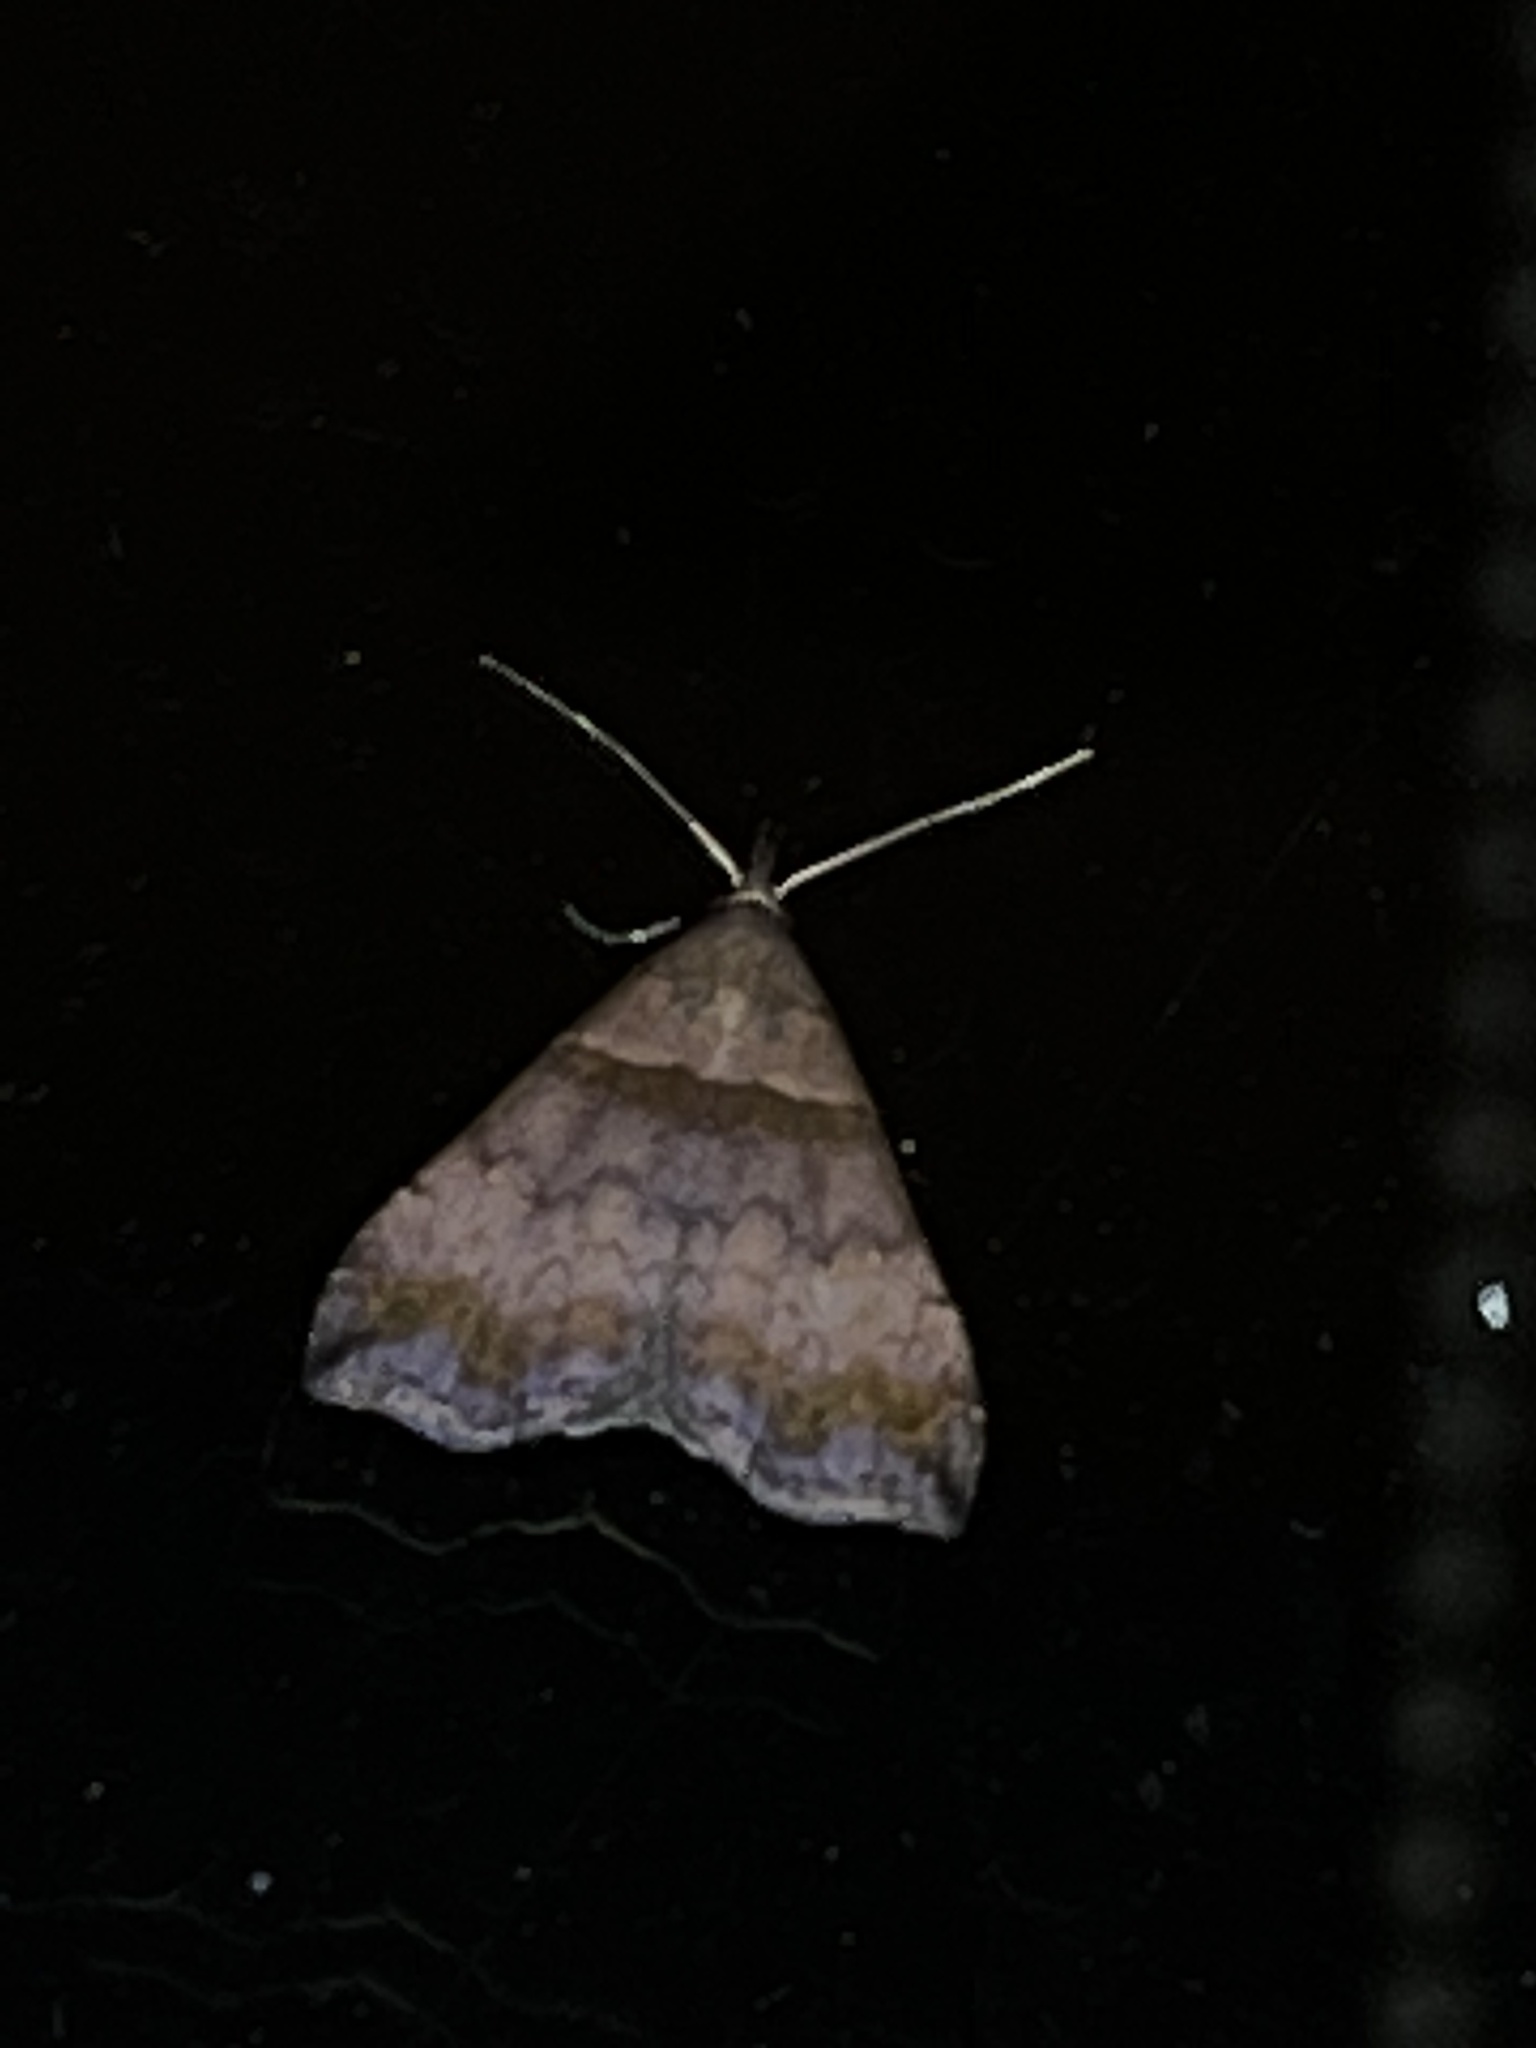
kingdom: Animalia
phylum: Arthropoda
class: Insecta
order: Lepidoptera
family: Erebidae
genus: Lascoria
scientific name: Lascoria ambigualis
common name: Ambiguous moth
